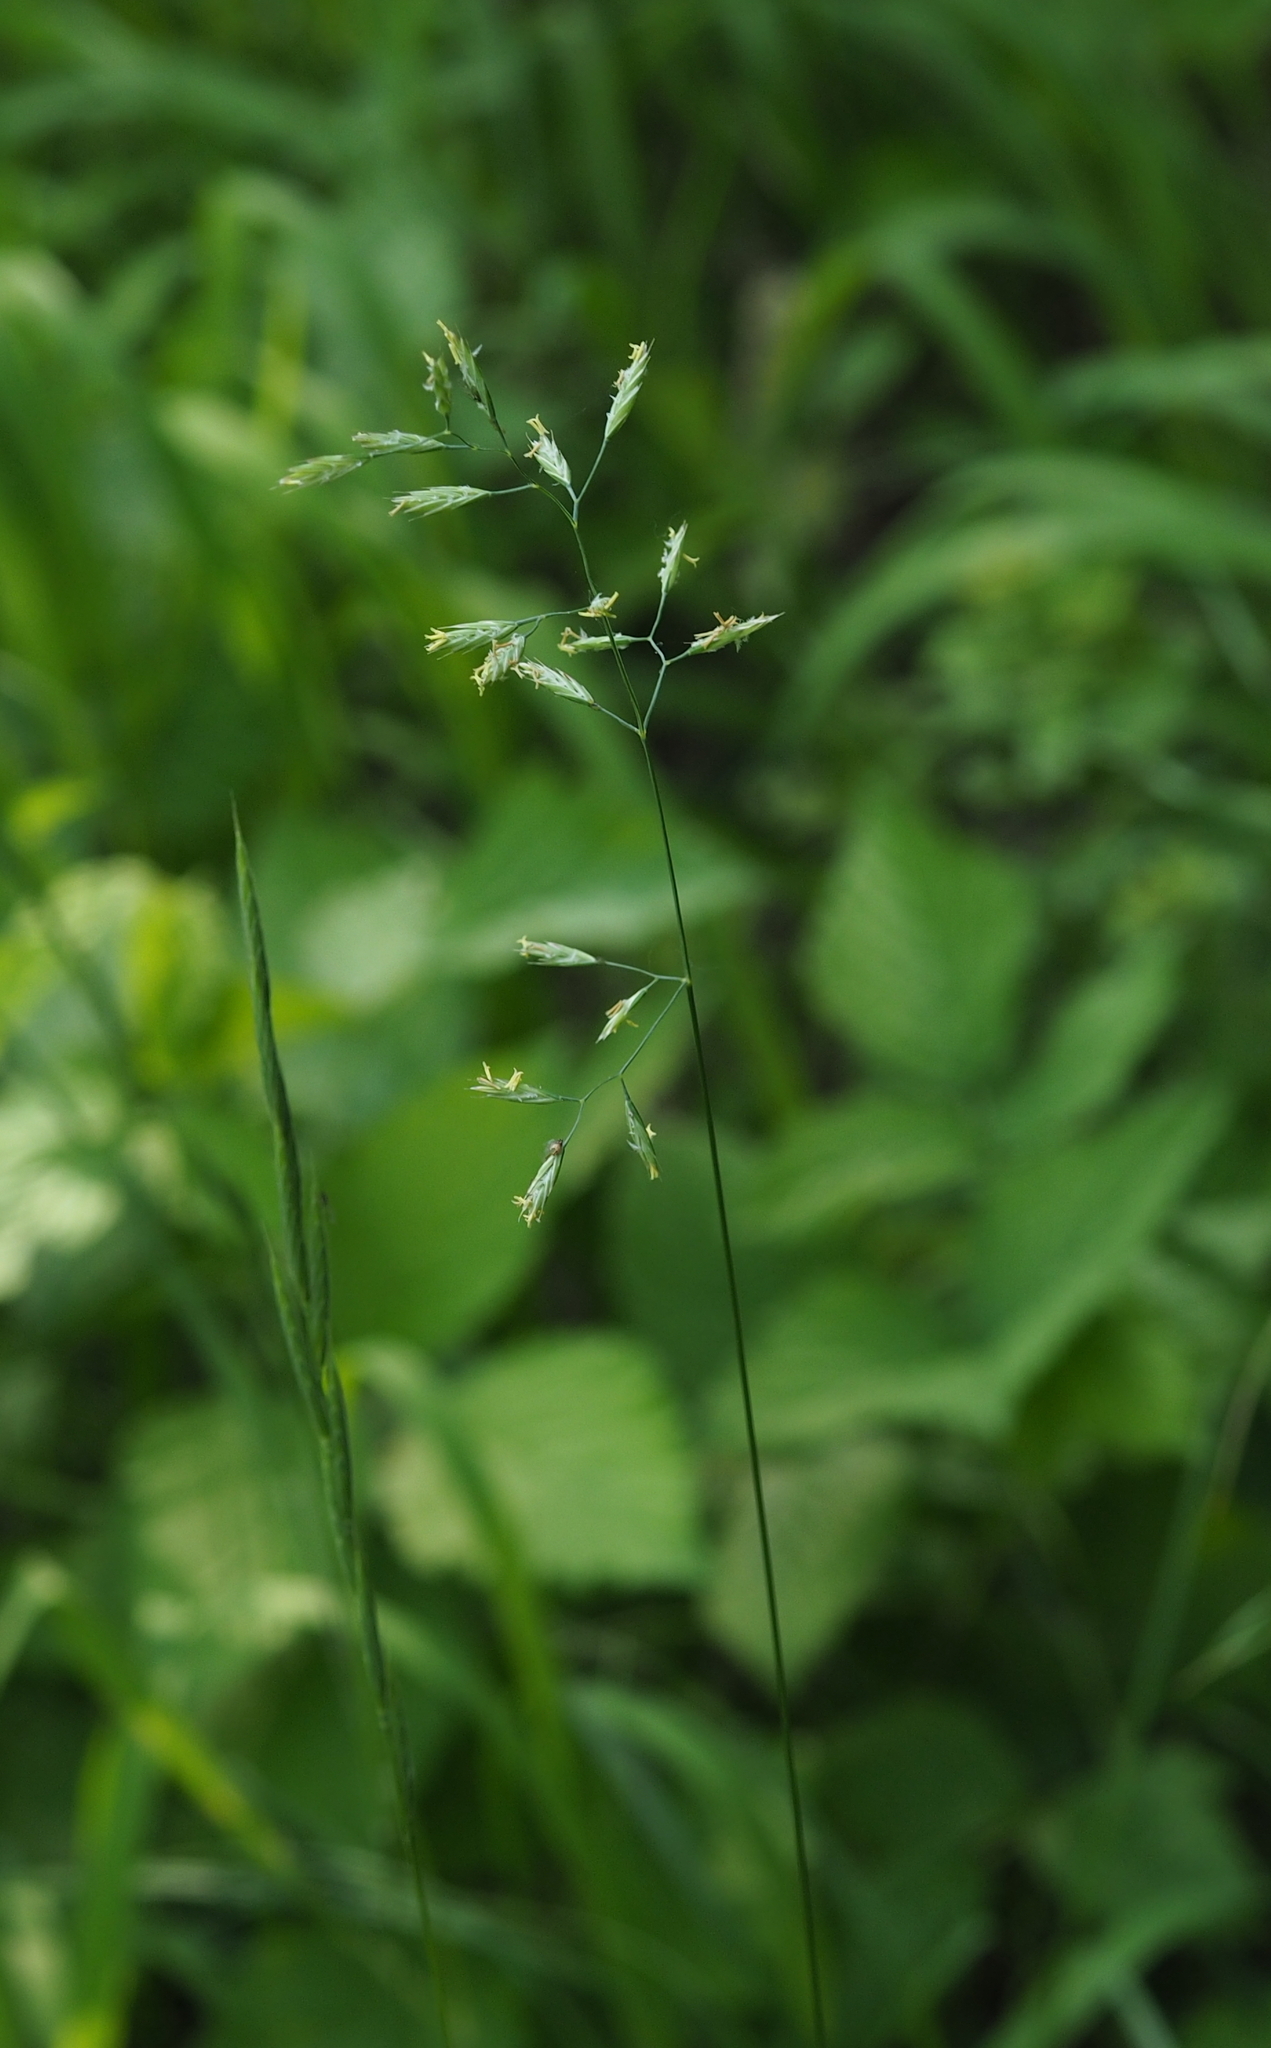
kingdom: Plantae
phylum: Tracheophyta
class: Liliopsida
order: Poales
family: Poaceae
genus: Festuca
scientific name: Festuca rubra
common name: Red fescue
